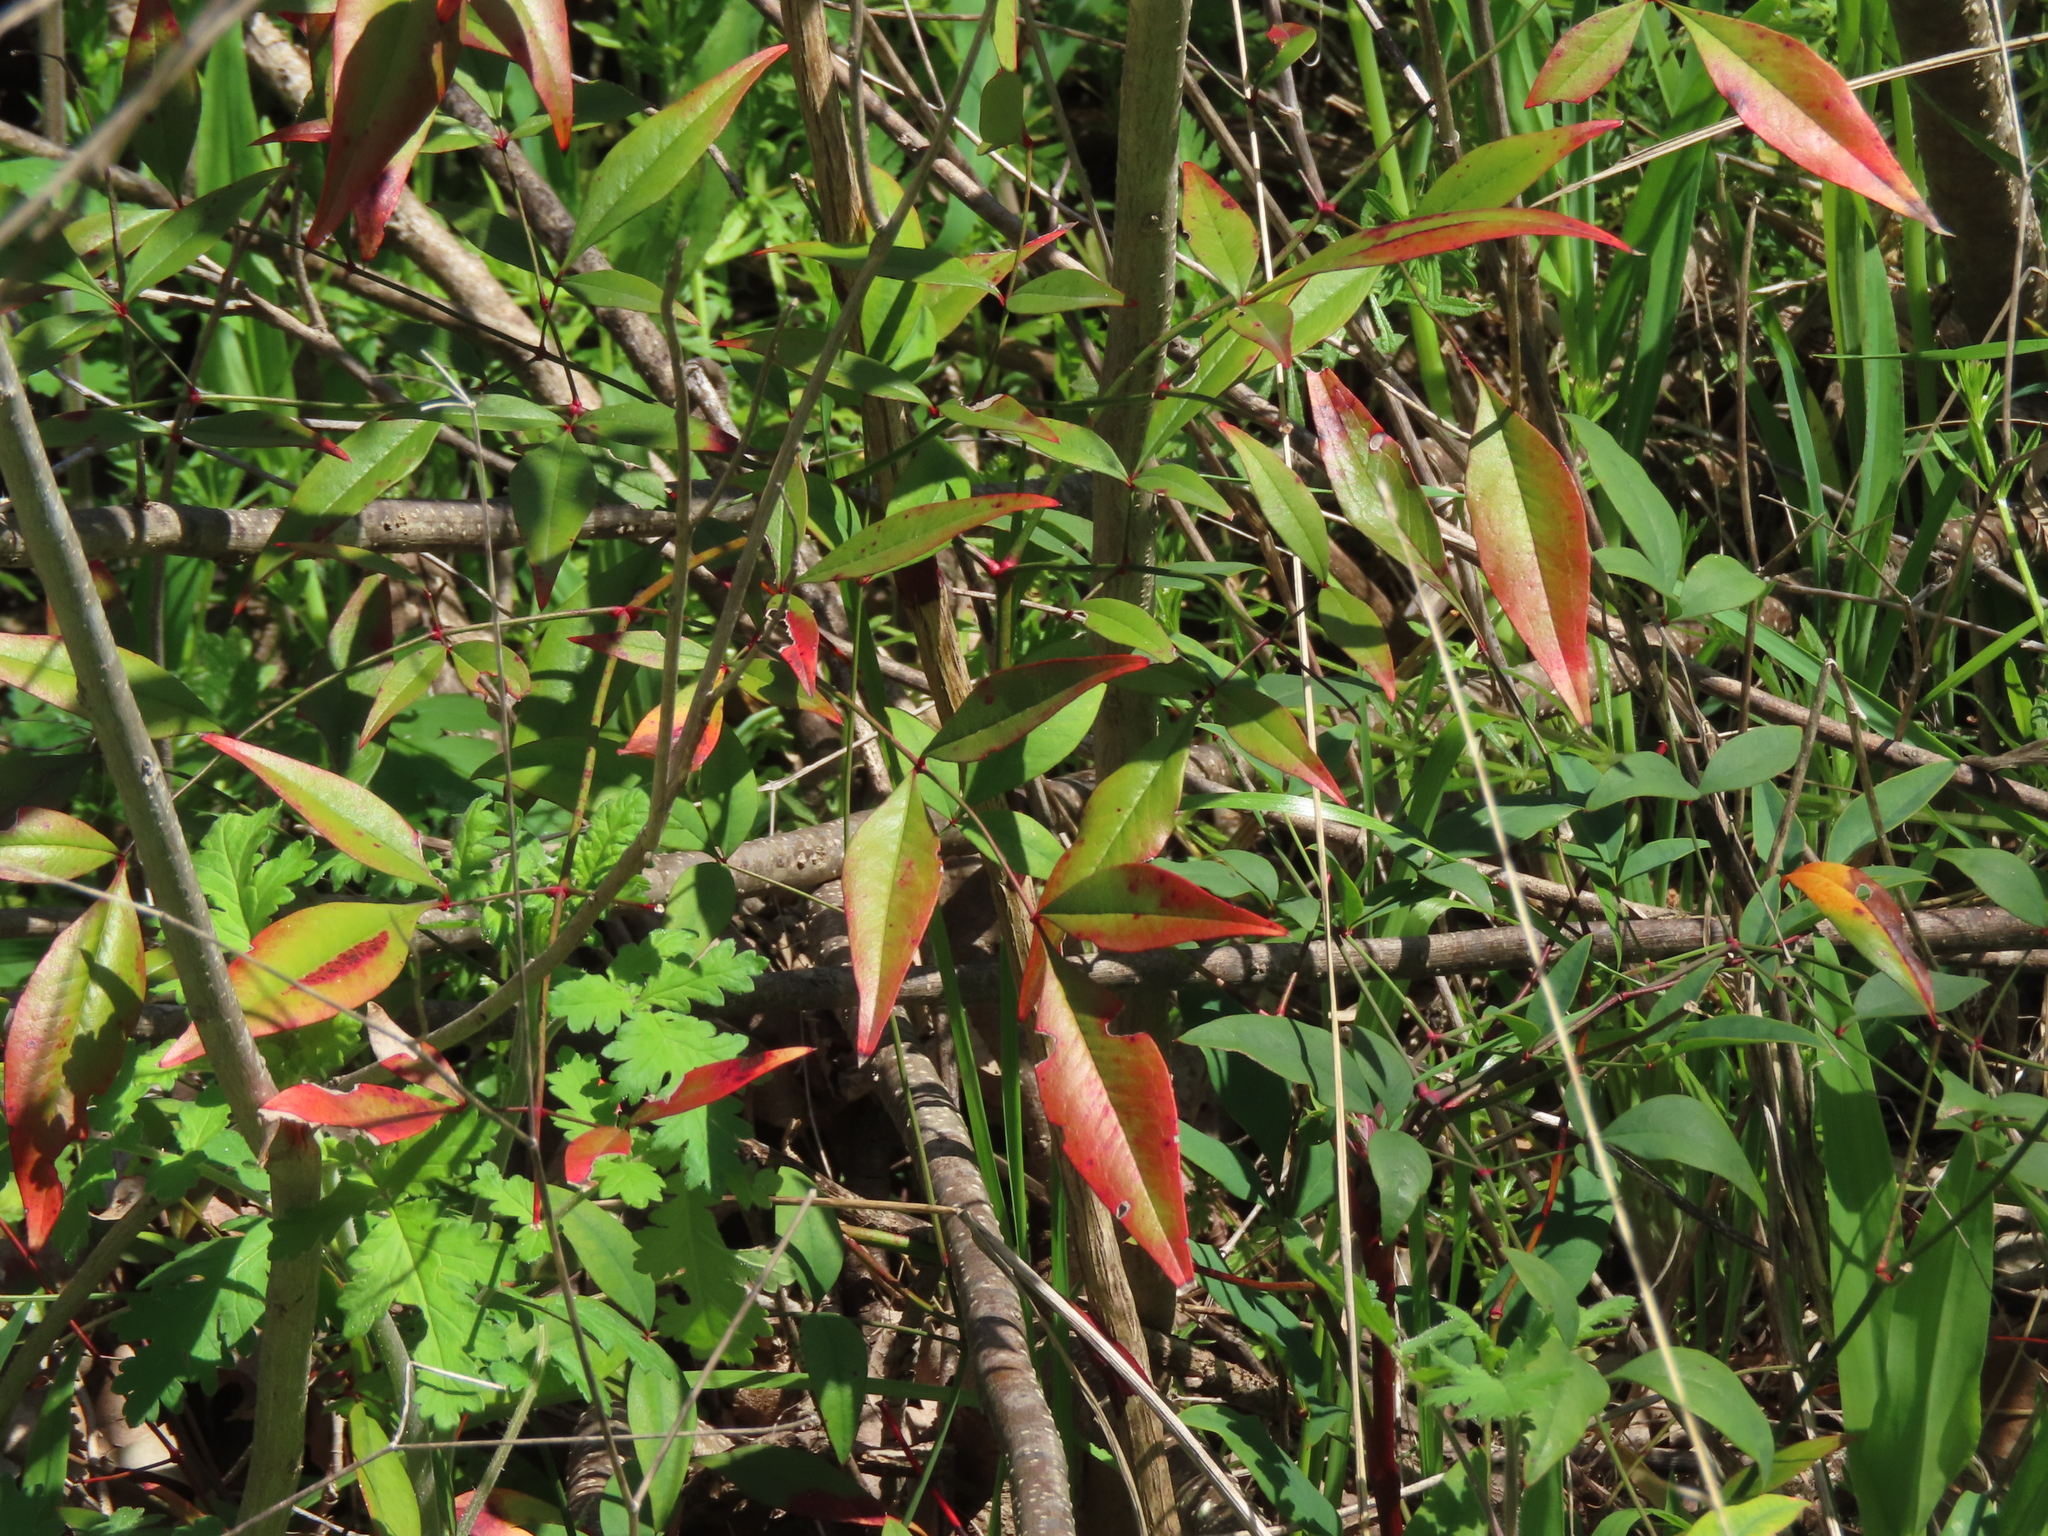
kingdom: Plantae
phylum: Tracheophyta
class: Magnoliopsida
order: Ranunculales
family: Berberidaceae
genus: Nandina
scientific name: Nandina domestica
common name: Sacred bamboo
